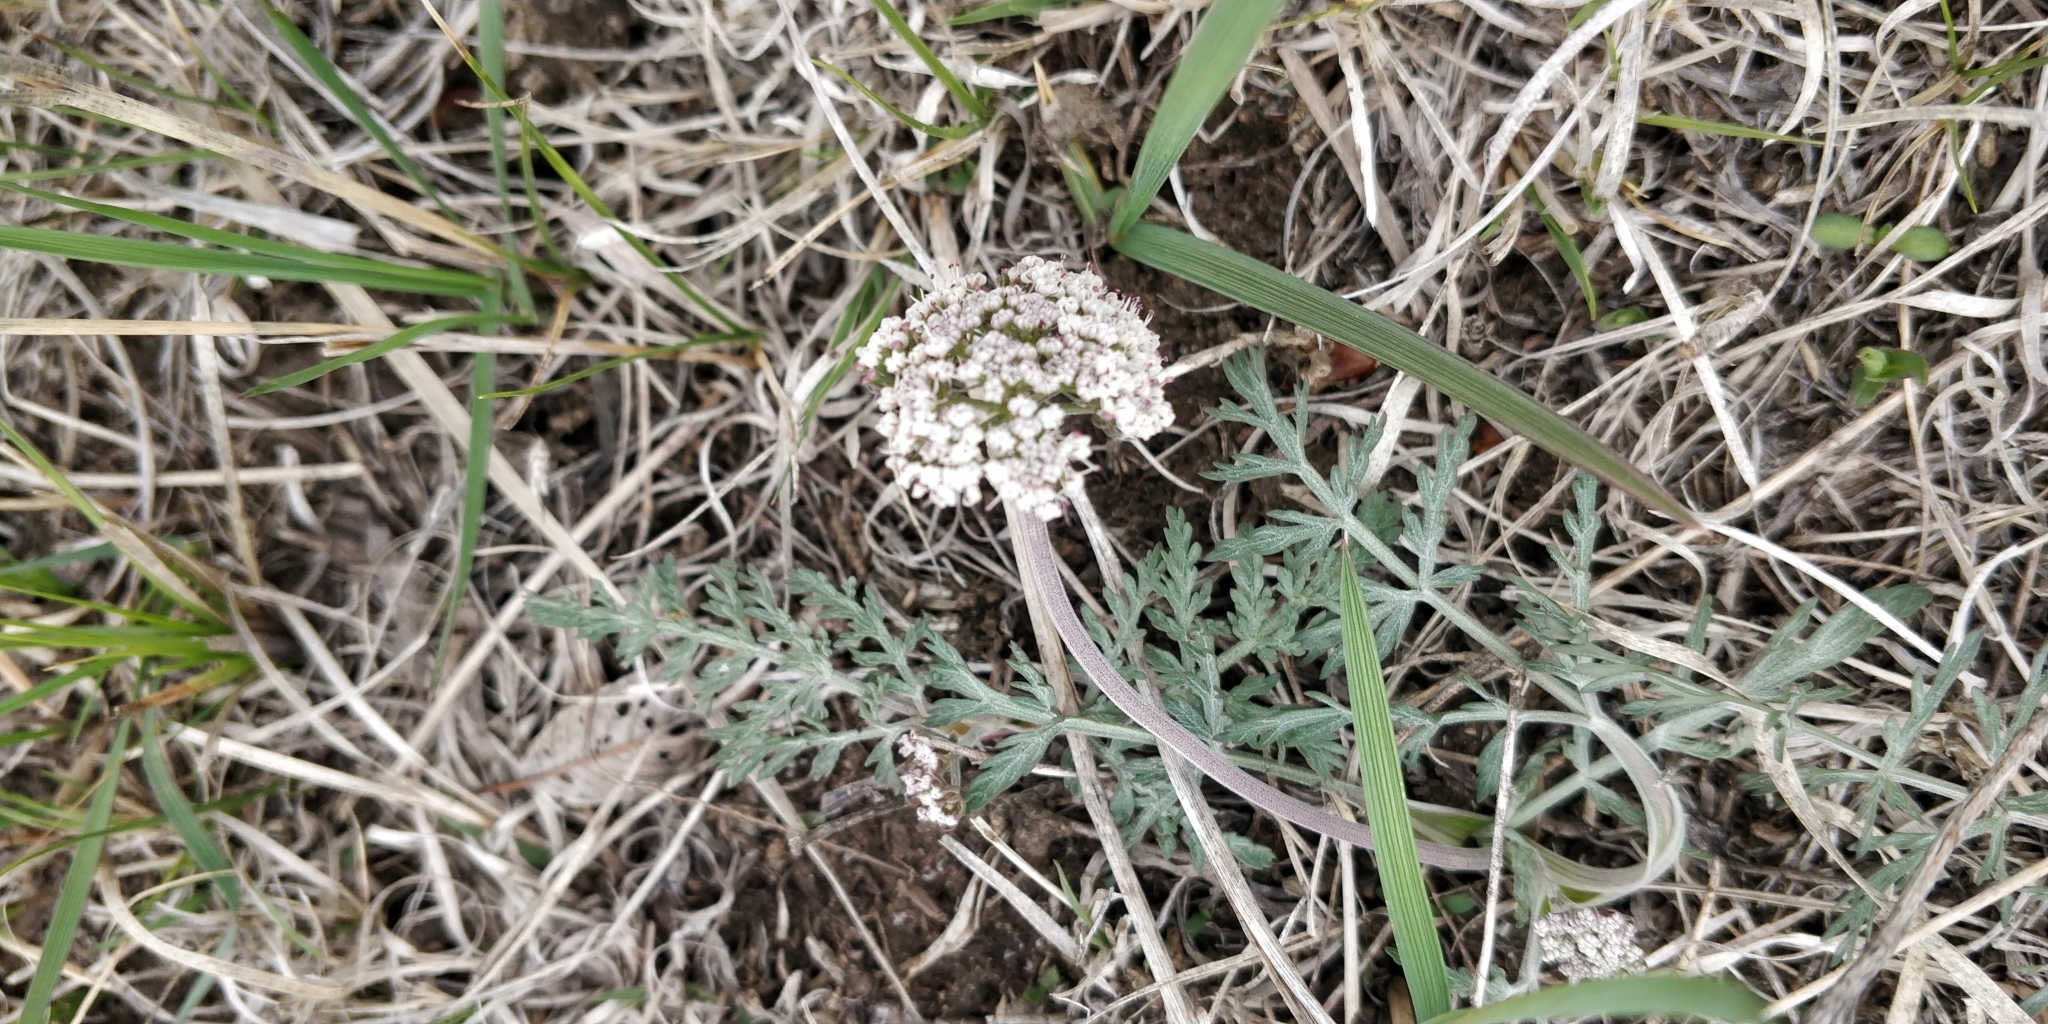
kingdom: Plantae
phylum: Tracheophyta
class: Magnoliopsida
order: Apiales
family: Apiaceae
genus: Lomatium
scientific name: Lomatium orientale
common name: Eastern cous
